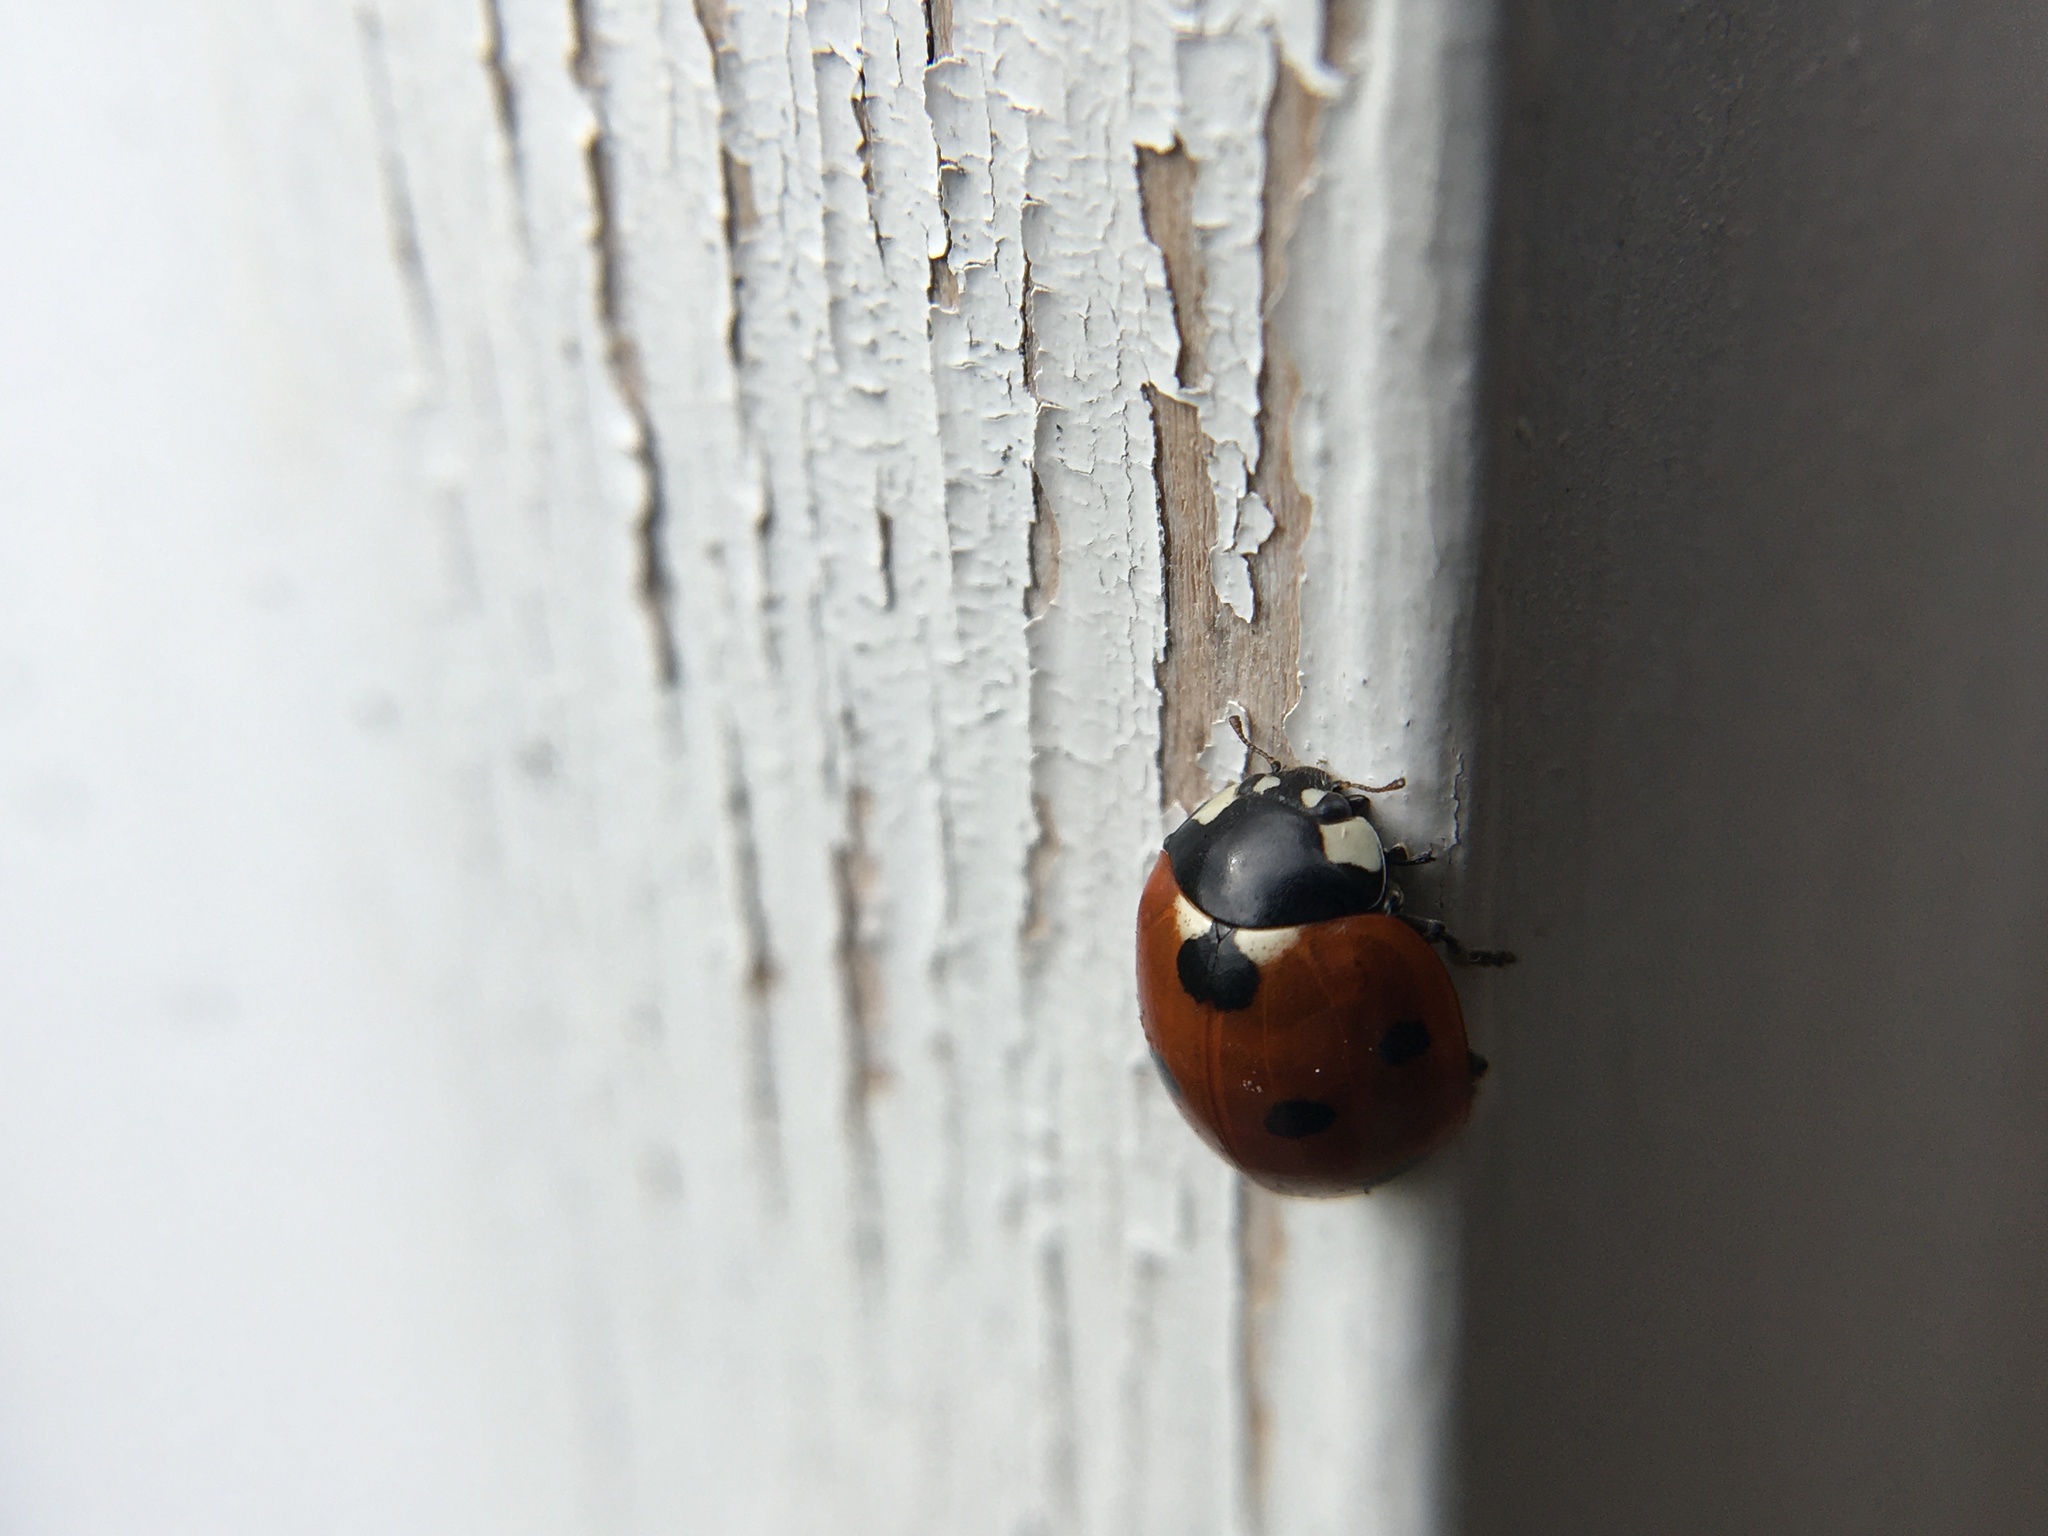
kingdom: Animalia
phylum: Arthropoda
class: Insecta
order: Coleoptera
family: Coccinellidae
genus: Coccinella
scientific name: Coccinella septempunctata
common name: Sevenspotted lady beetle
